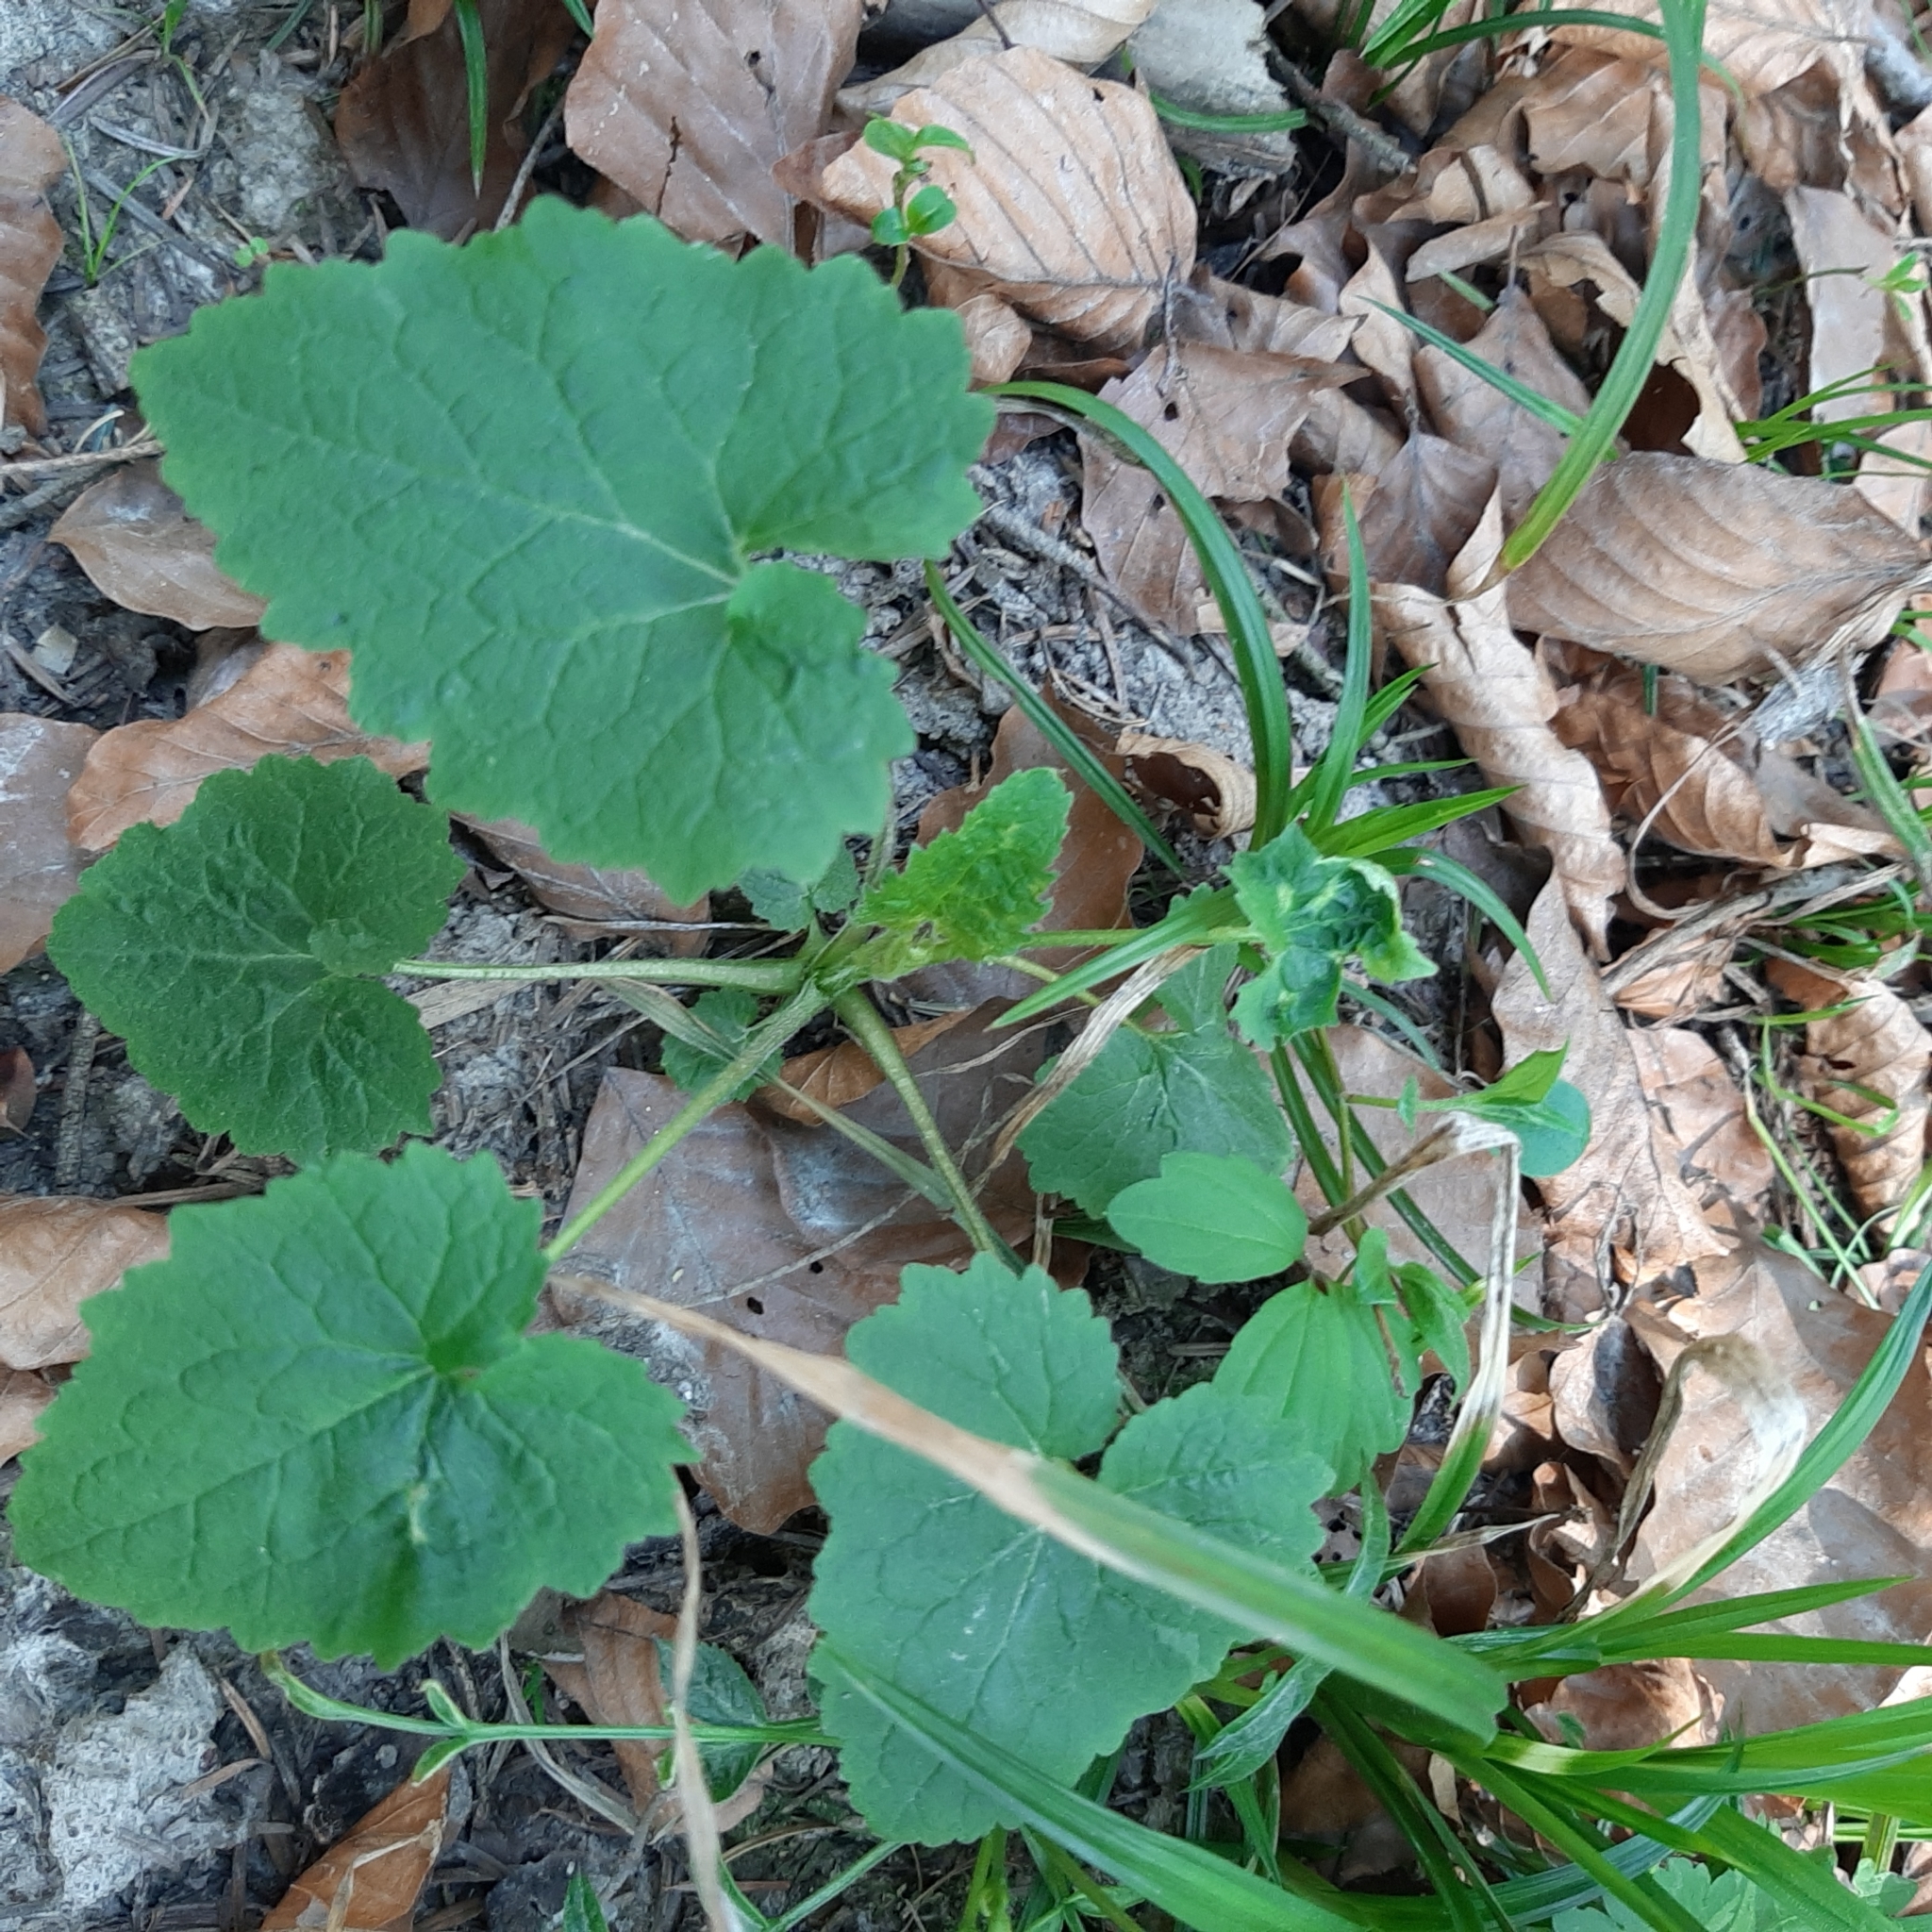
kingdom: Plantae
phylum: Tracheophyta
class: Magnoliopsida
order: Asterales
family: Campanulaceae
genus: Campanula
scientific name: Campanula trachelium
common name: Nettle-leaved bellflower
